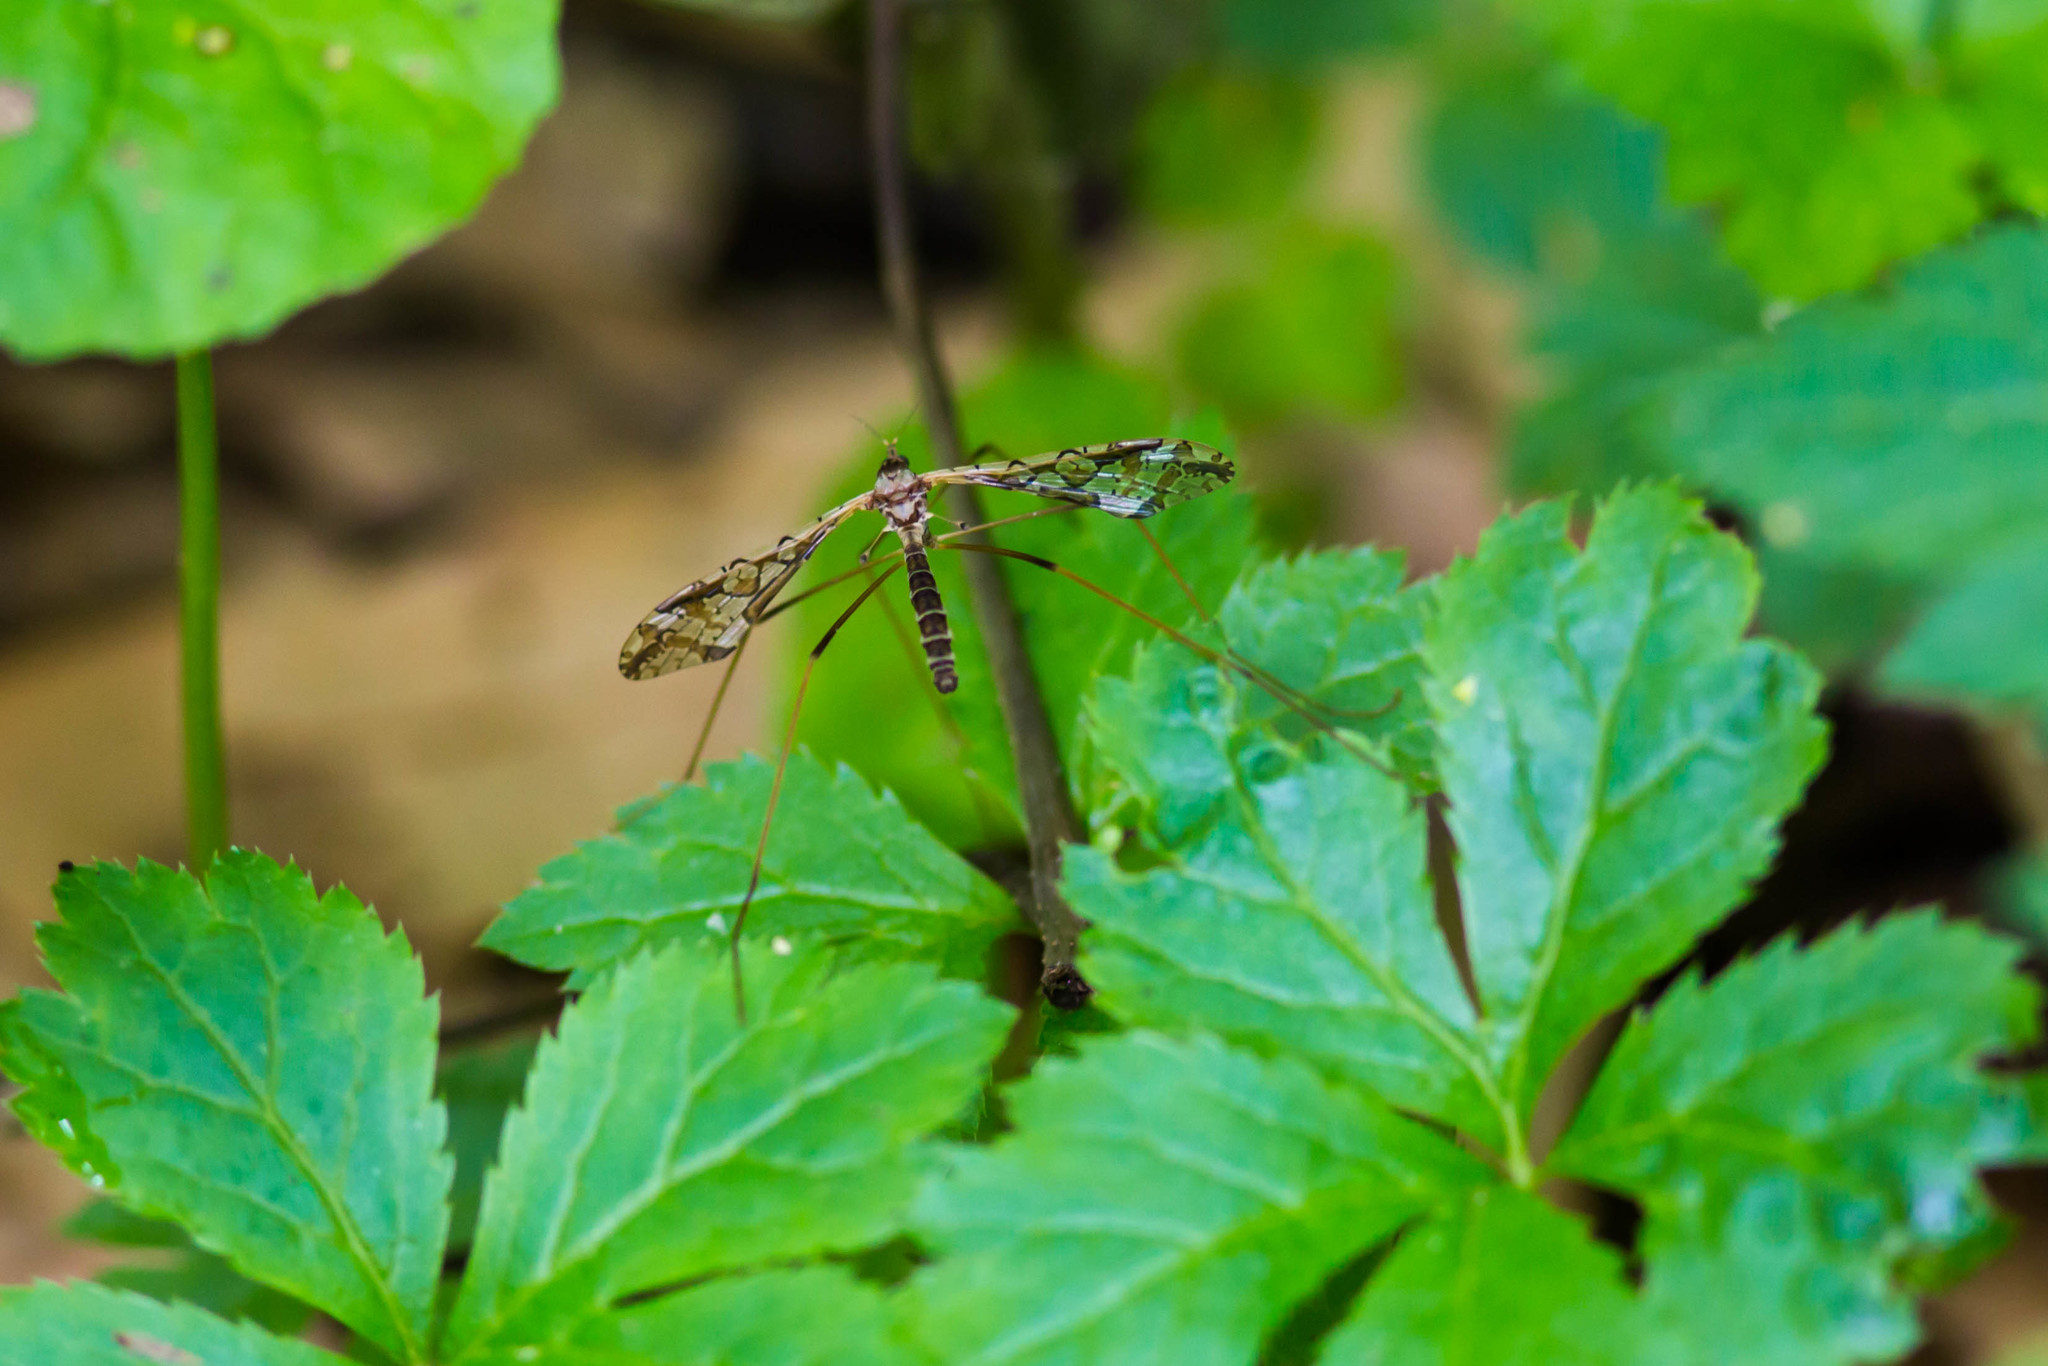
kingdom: Animalia
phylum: Arthropoda
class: Insecta
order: Diptera
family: Limoniidae
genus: Epiphragma
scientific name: Epiphragma solatrix
